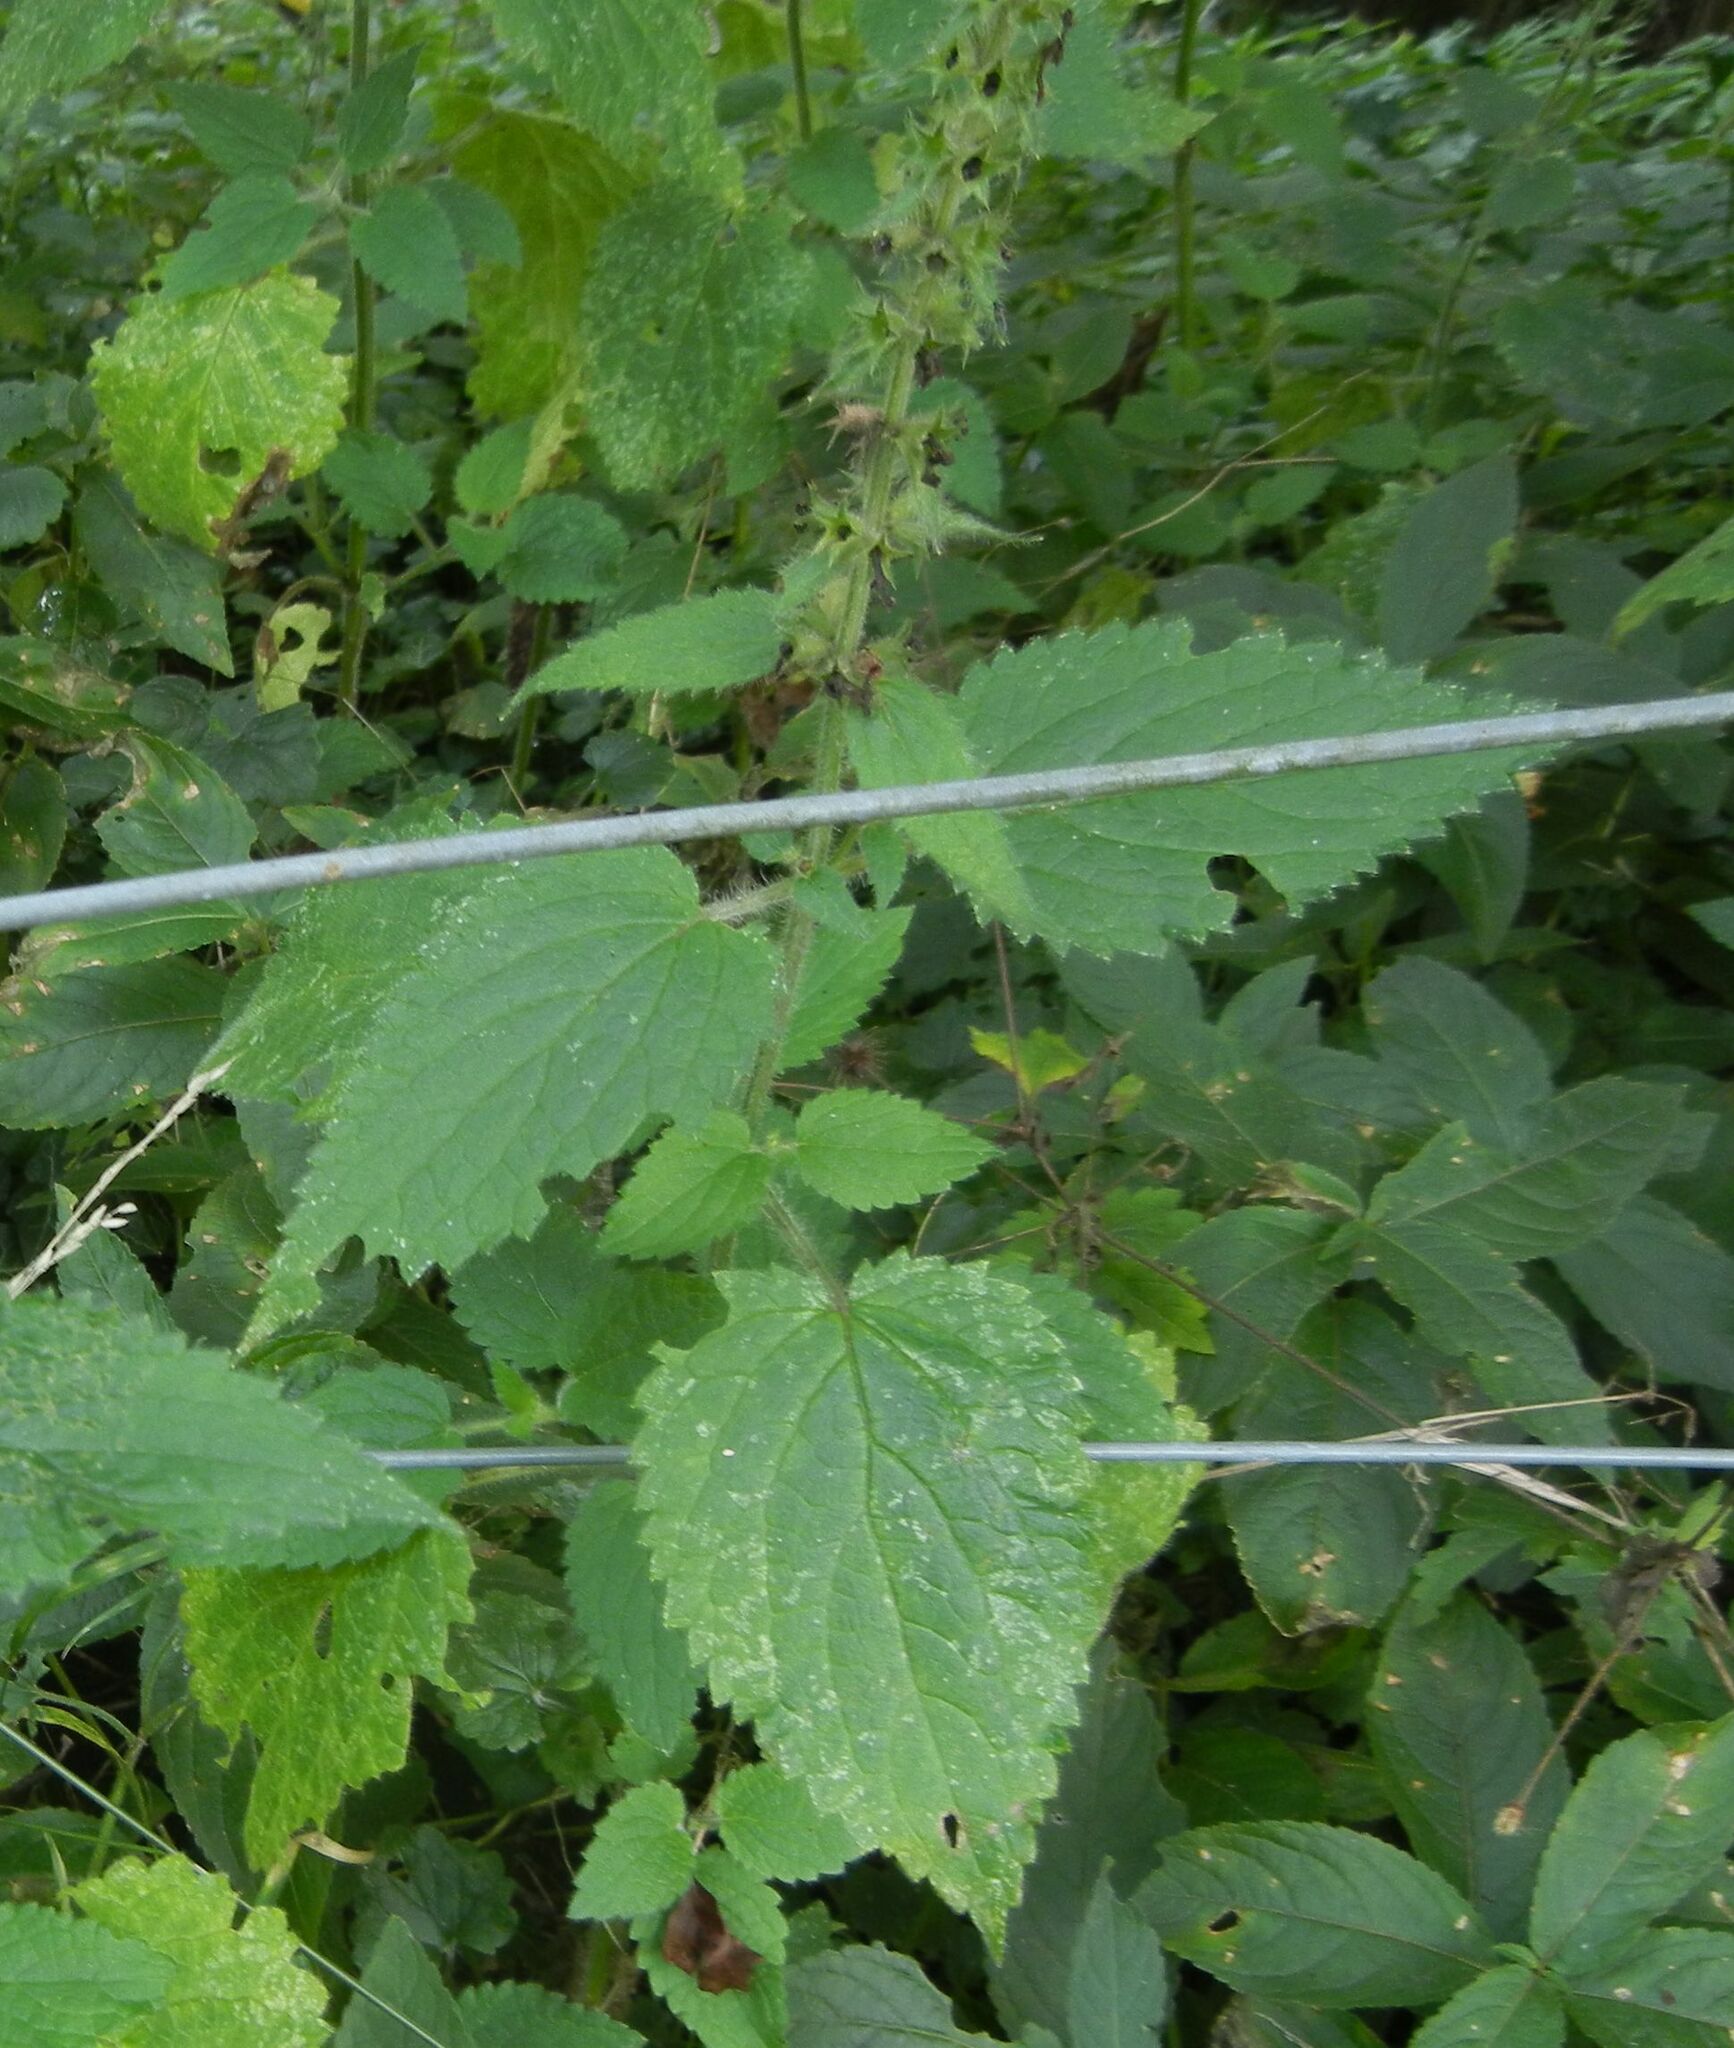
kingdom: Plantae
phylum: Tracheophyta
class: Magnoliopsida
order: Lamiales
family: Lamiaceae
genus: Stachys
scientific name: Stachys sylvatica
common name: Hedge woundwort
